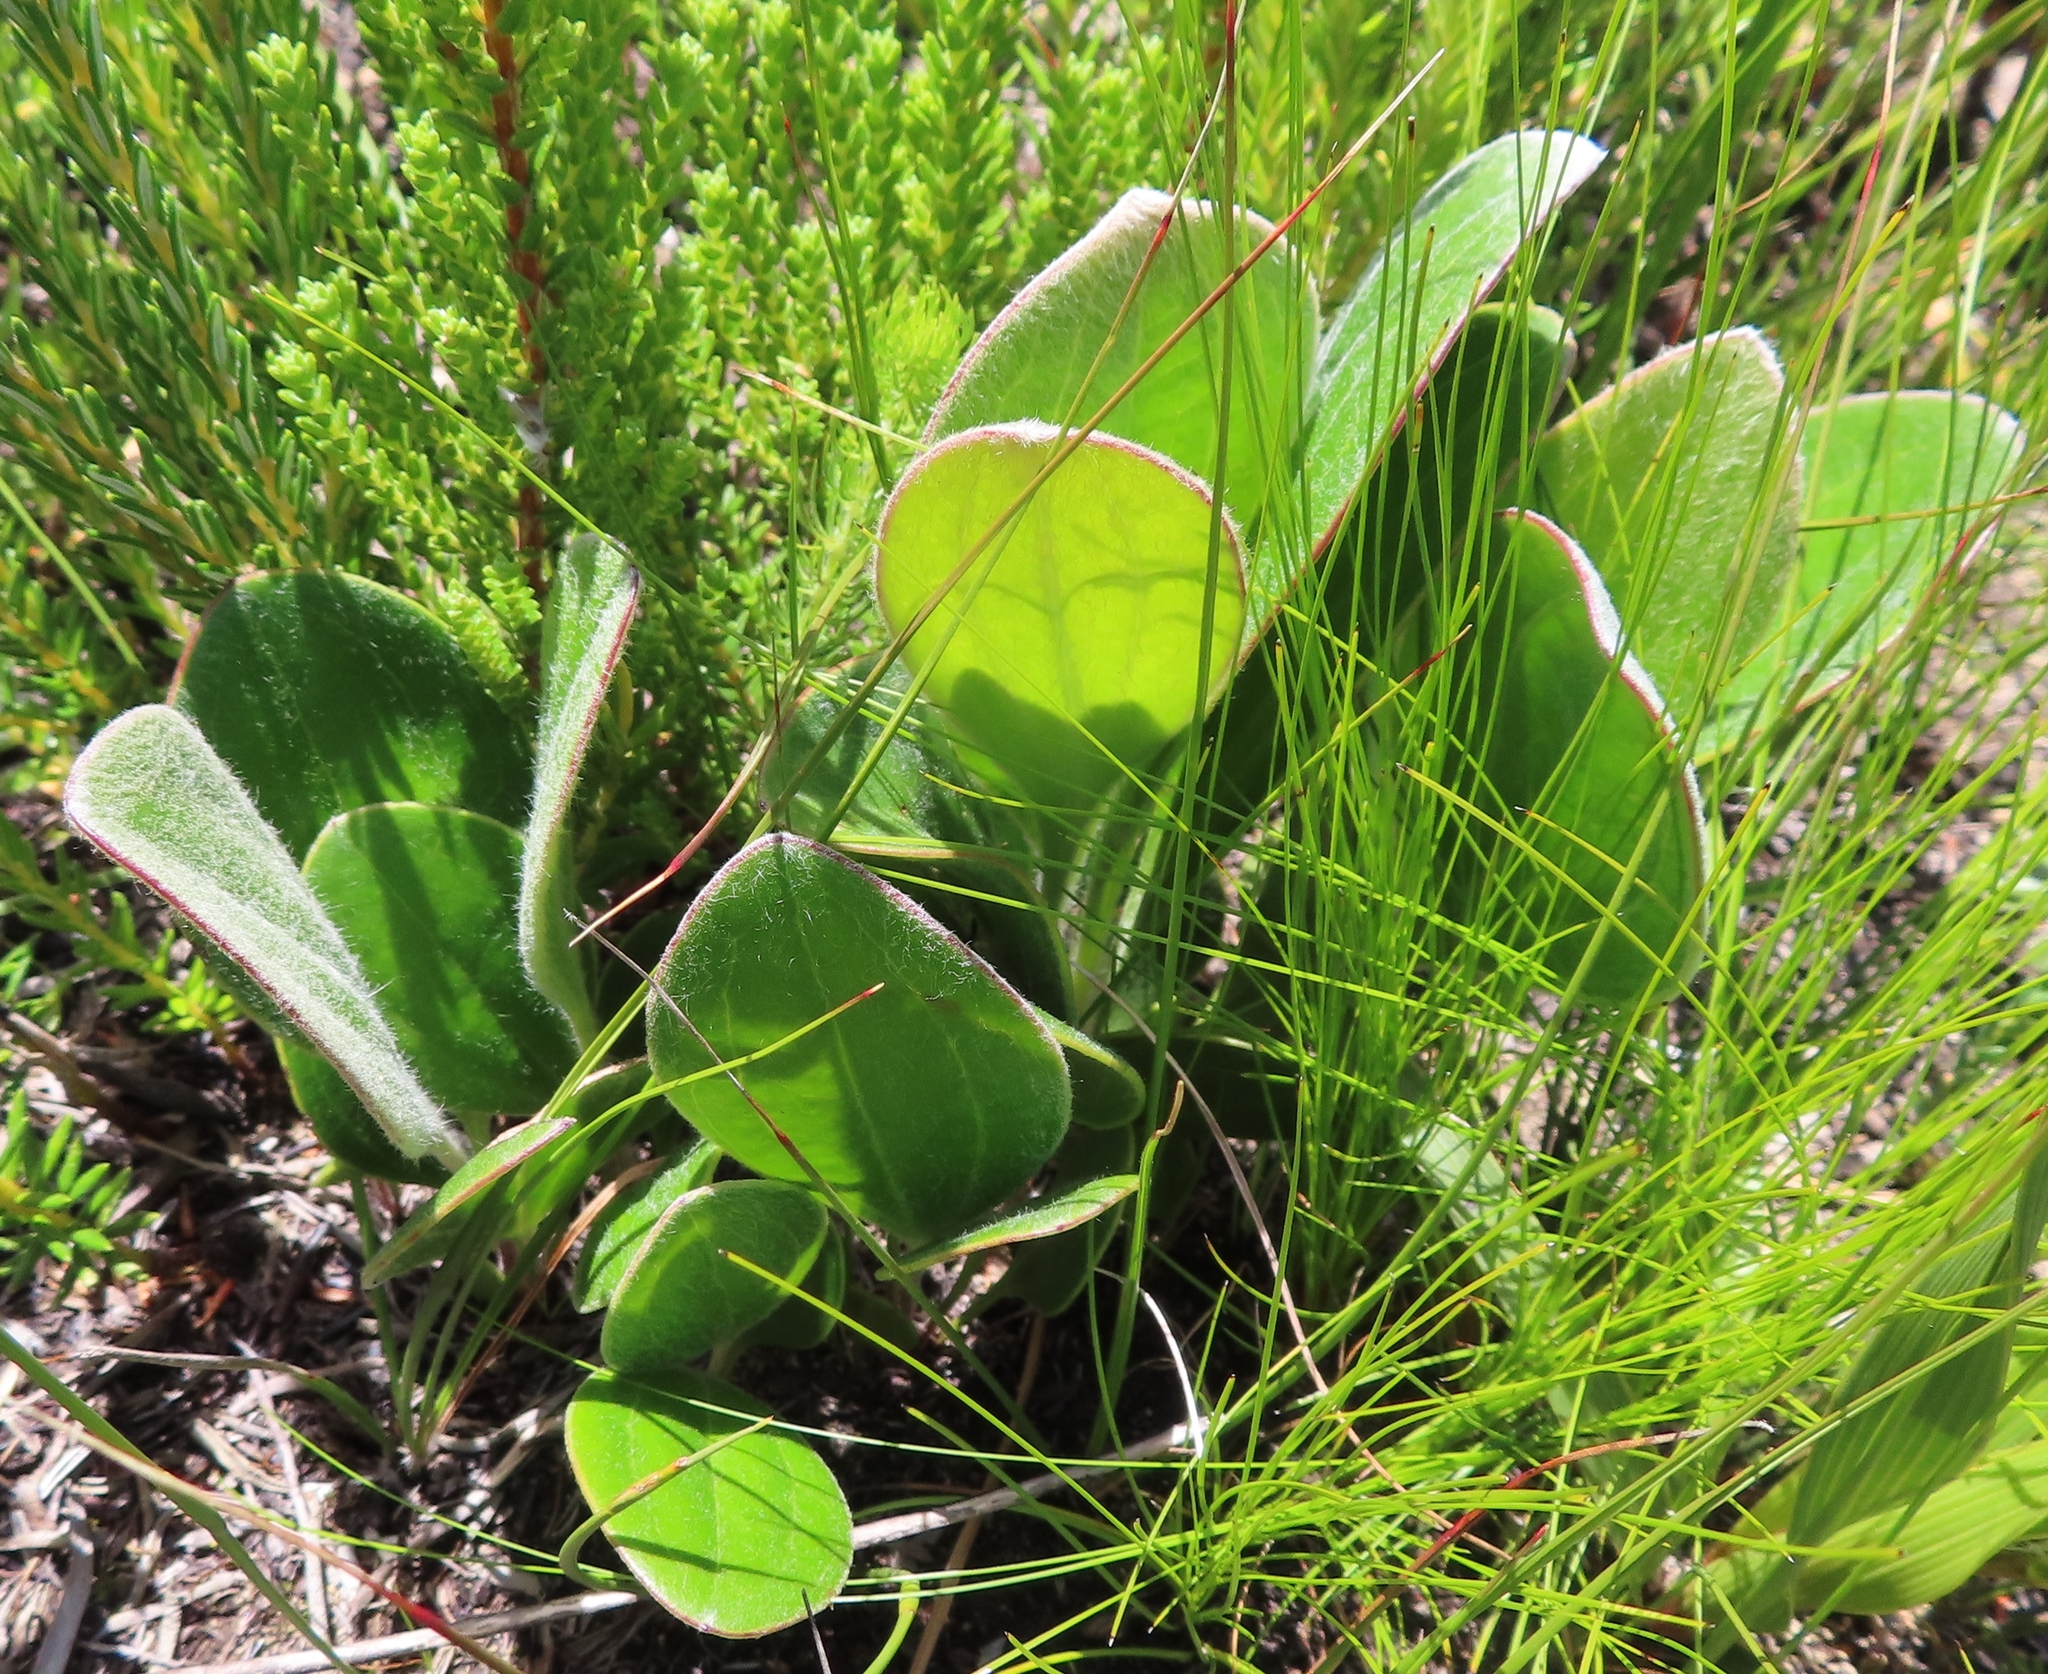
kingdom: Plantae
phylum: Tracheophyta
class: Magnoliopsida
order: Asterales
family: Asteraceae
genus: Mairia
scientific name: Mairia coriacea
